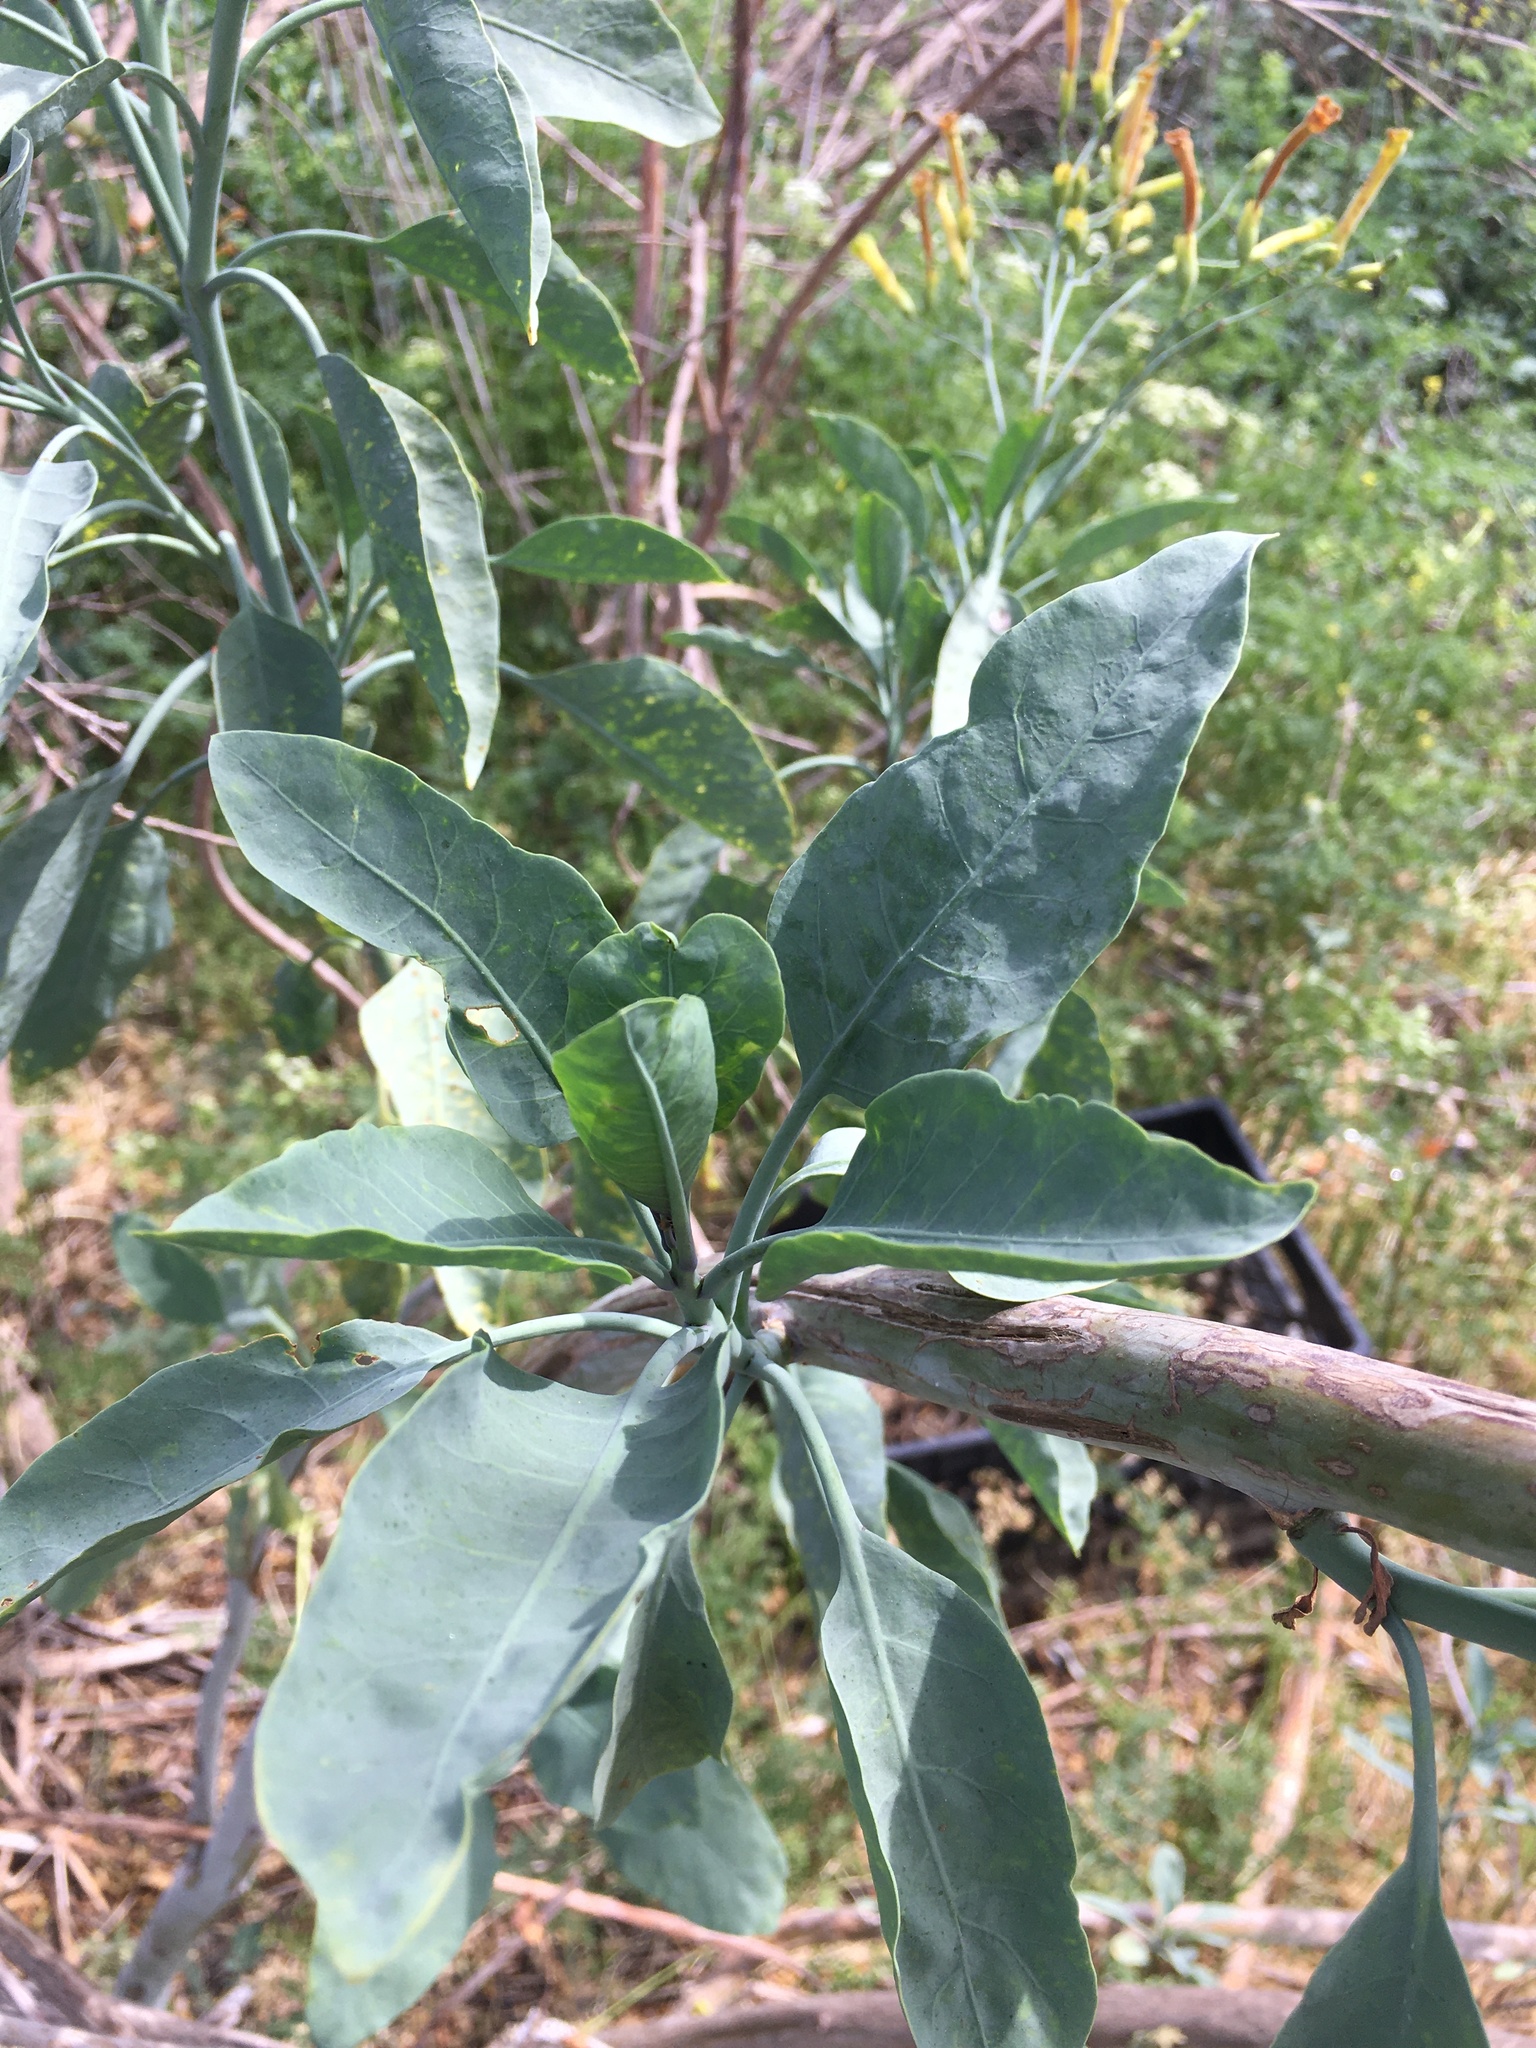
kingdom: Plantae
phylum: Tracheophyta
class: Magnoliopsida
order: Solanales
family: Solanaceae
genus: Nicotiana
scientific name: Nicotiana glauca
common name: Tree tobacco
